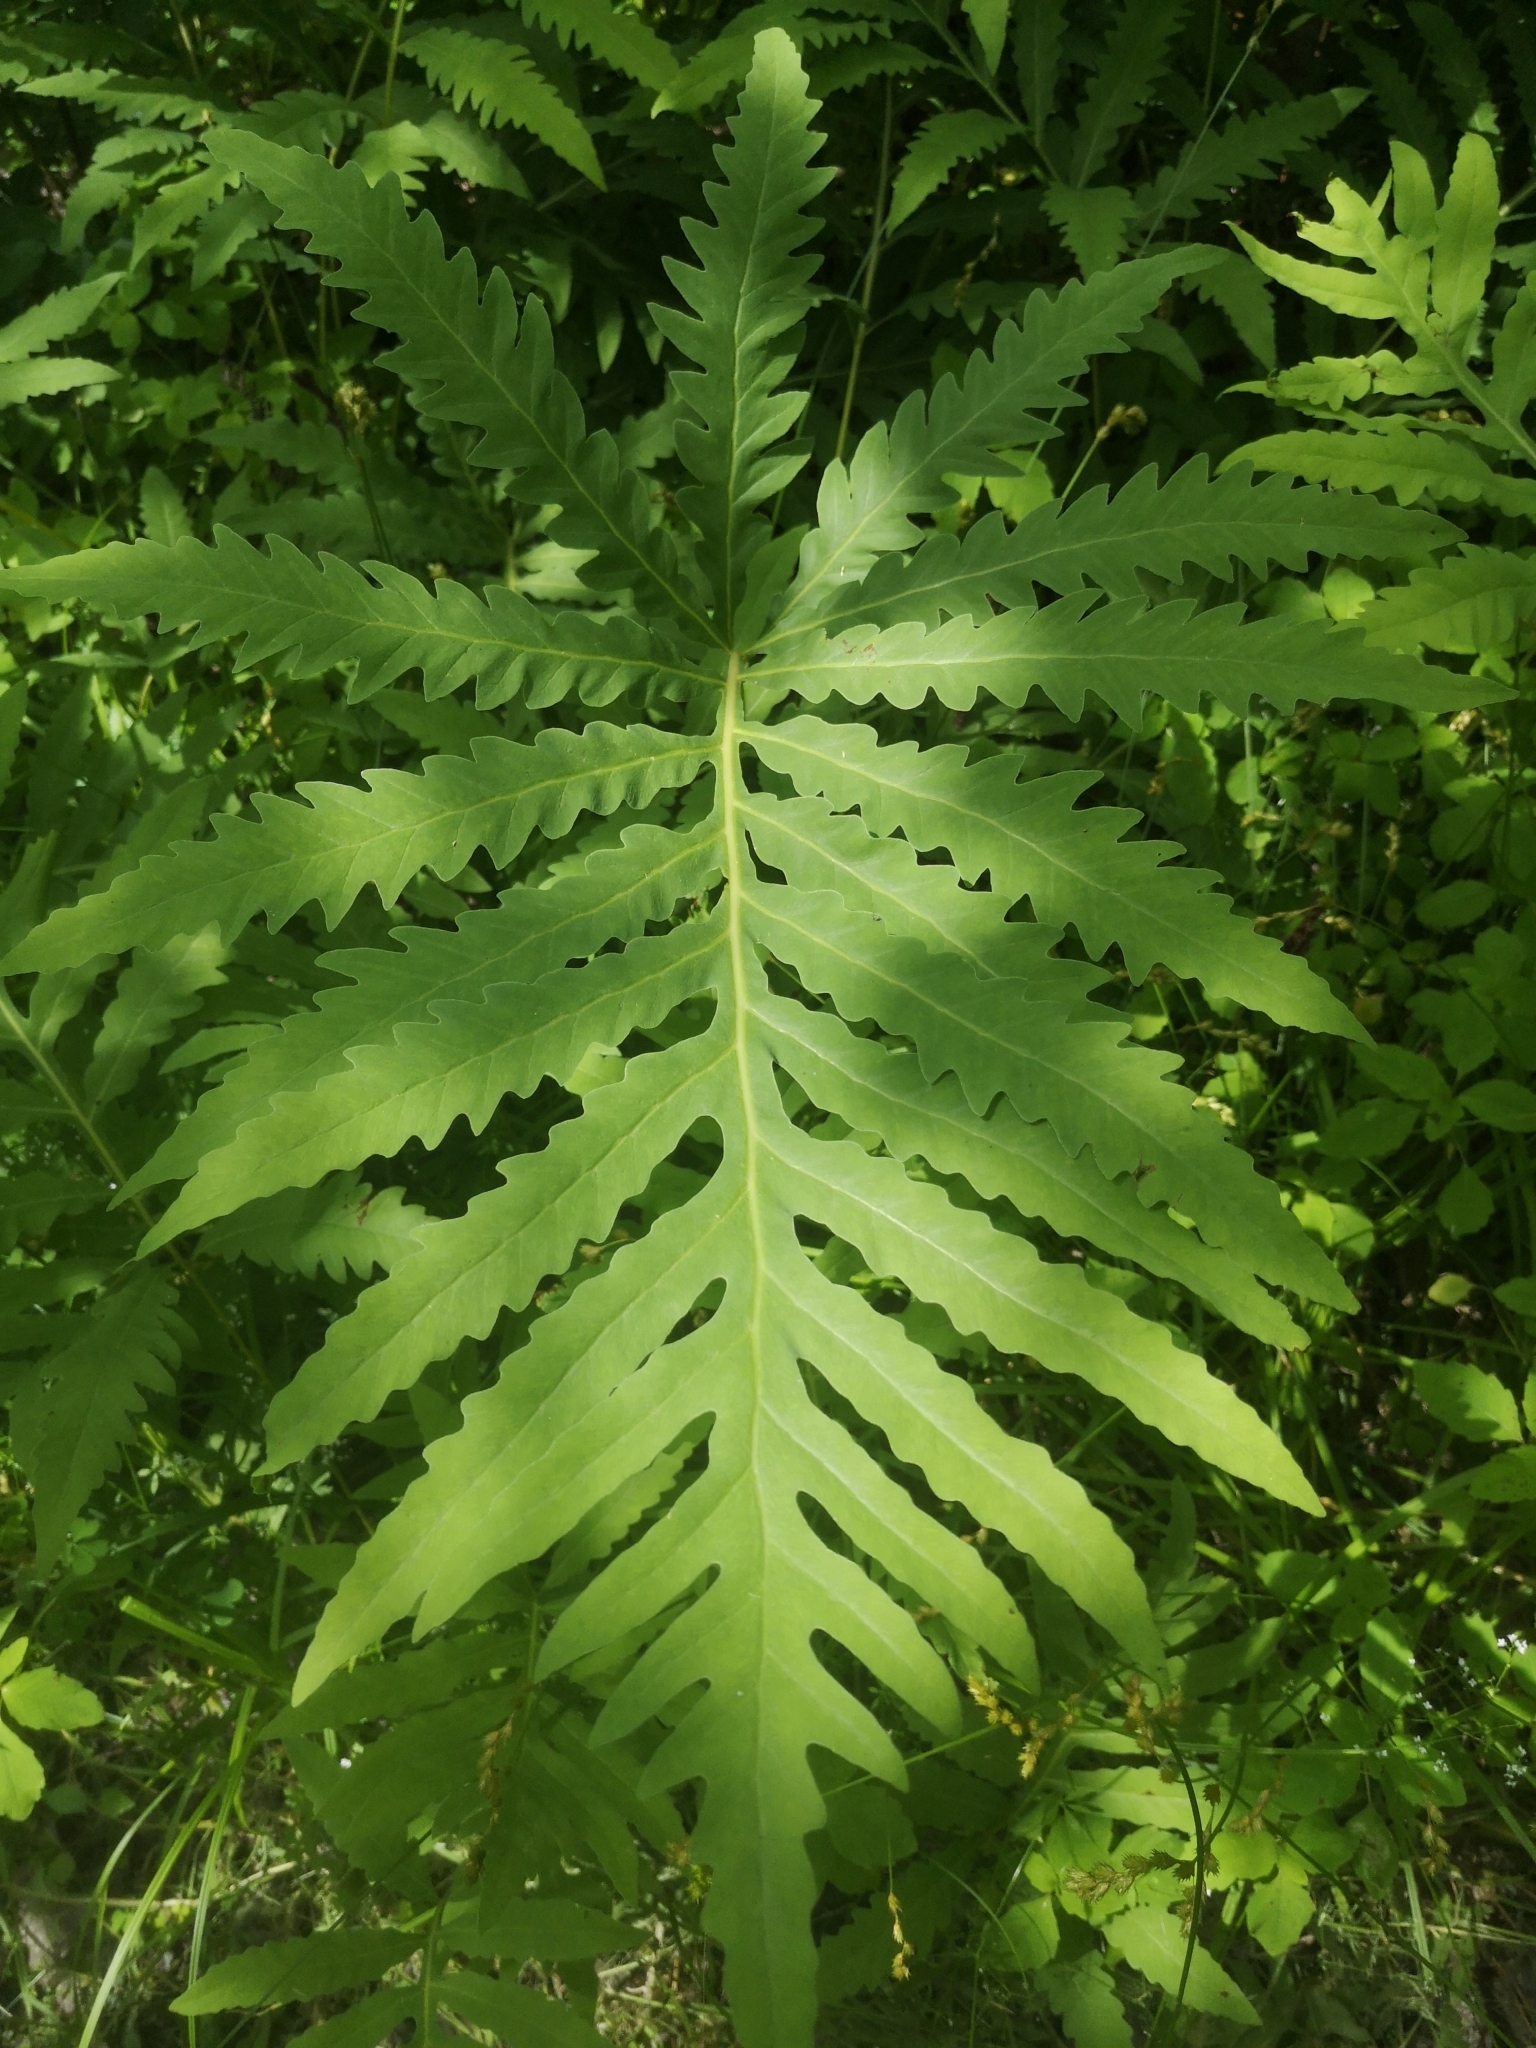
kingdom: Plantae
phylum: Tracheophyta
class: Polypodiopsida
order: Polypodiales
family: Onocleaceae
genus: Onoclea
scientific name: Onoclea sensibilis
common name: Sensitive fern
